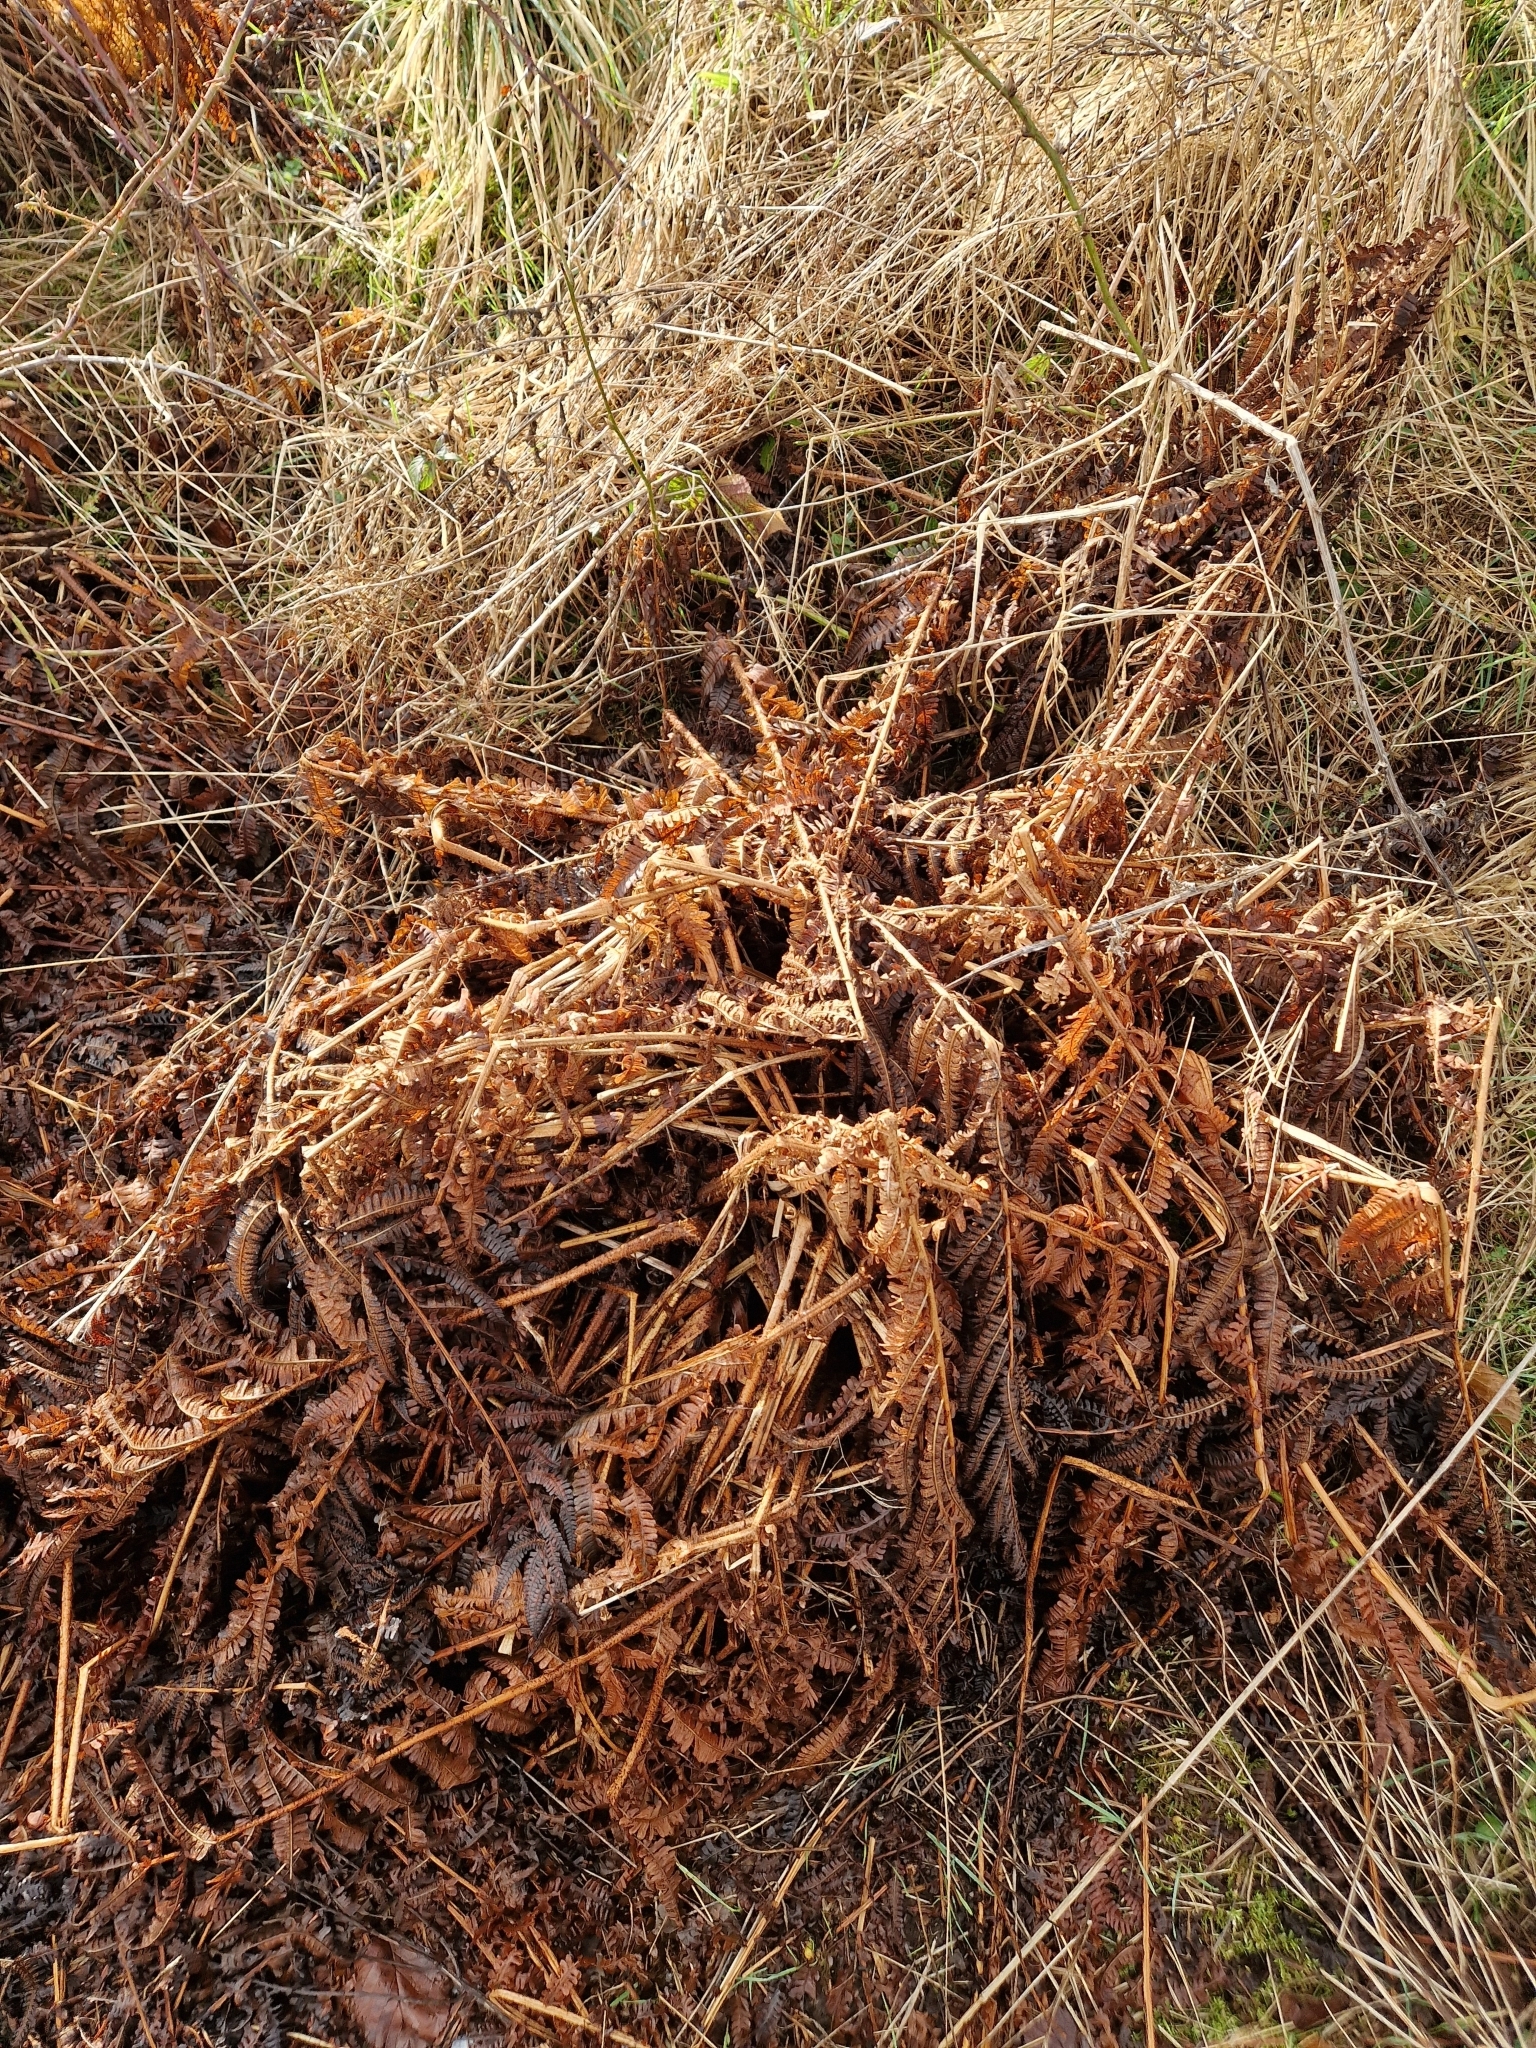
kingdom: Fungi
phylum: Ascomycota
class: Leotiomycetes
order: Helotiales
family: Pezizellaceae
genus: Allophylaria
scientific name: Allophylaria campanuliformis
